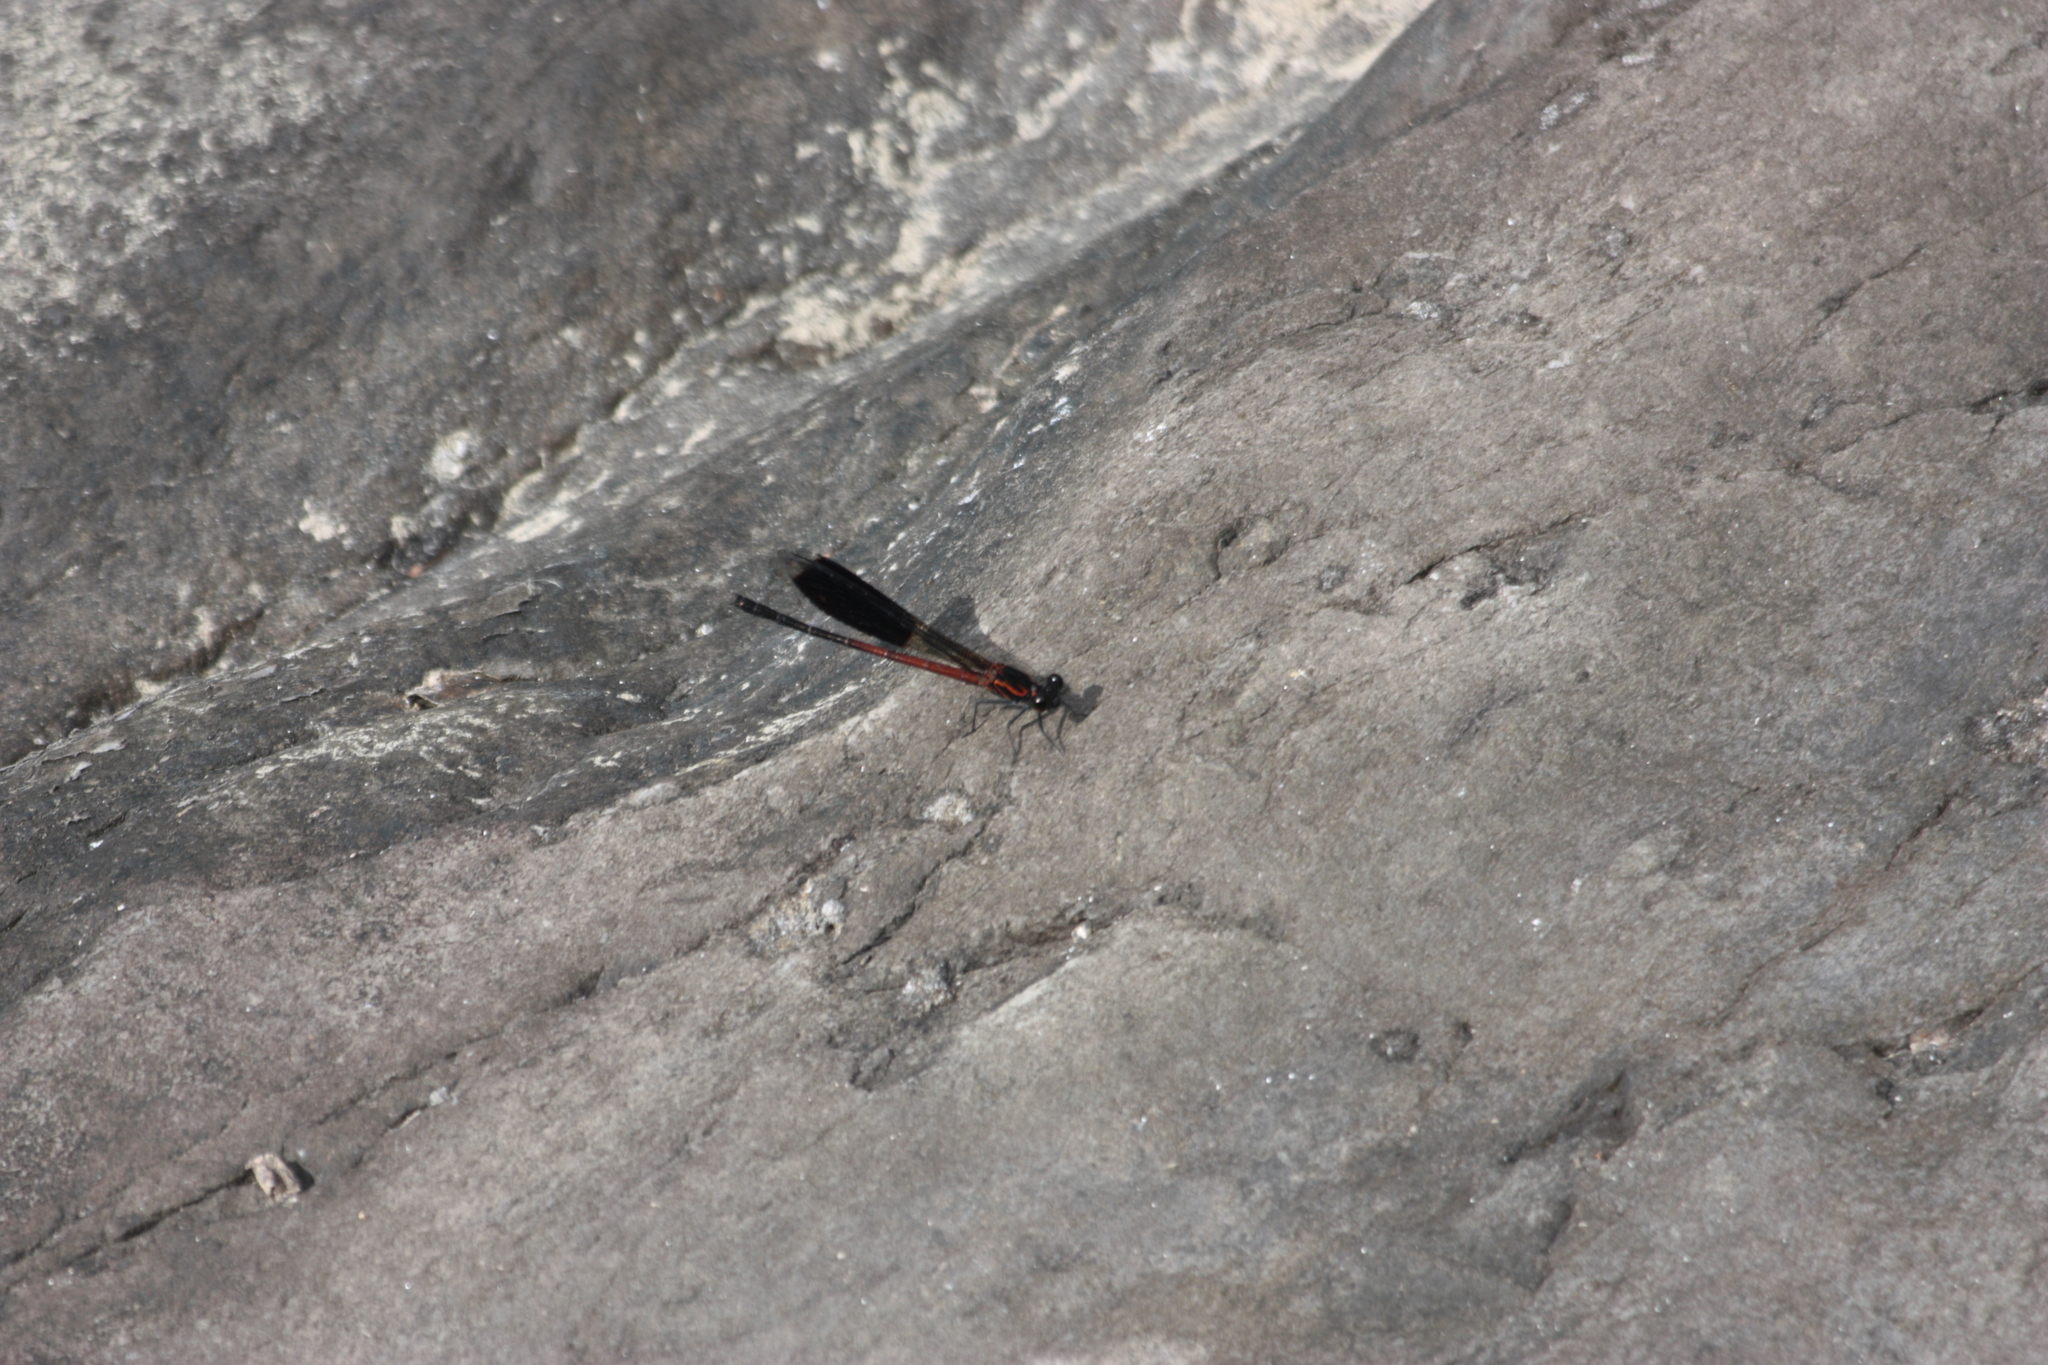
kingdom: Animalia
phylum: Arthropoda
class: Insecta
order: Odonata
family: Euphaeidae
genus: Euphaea
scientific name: Euphaea formosa
